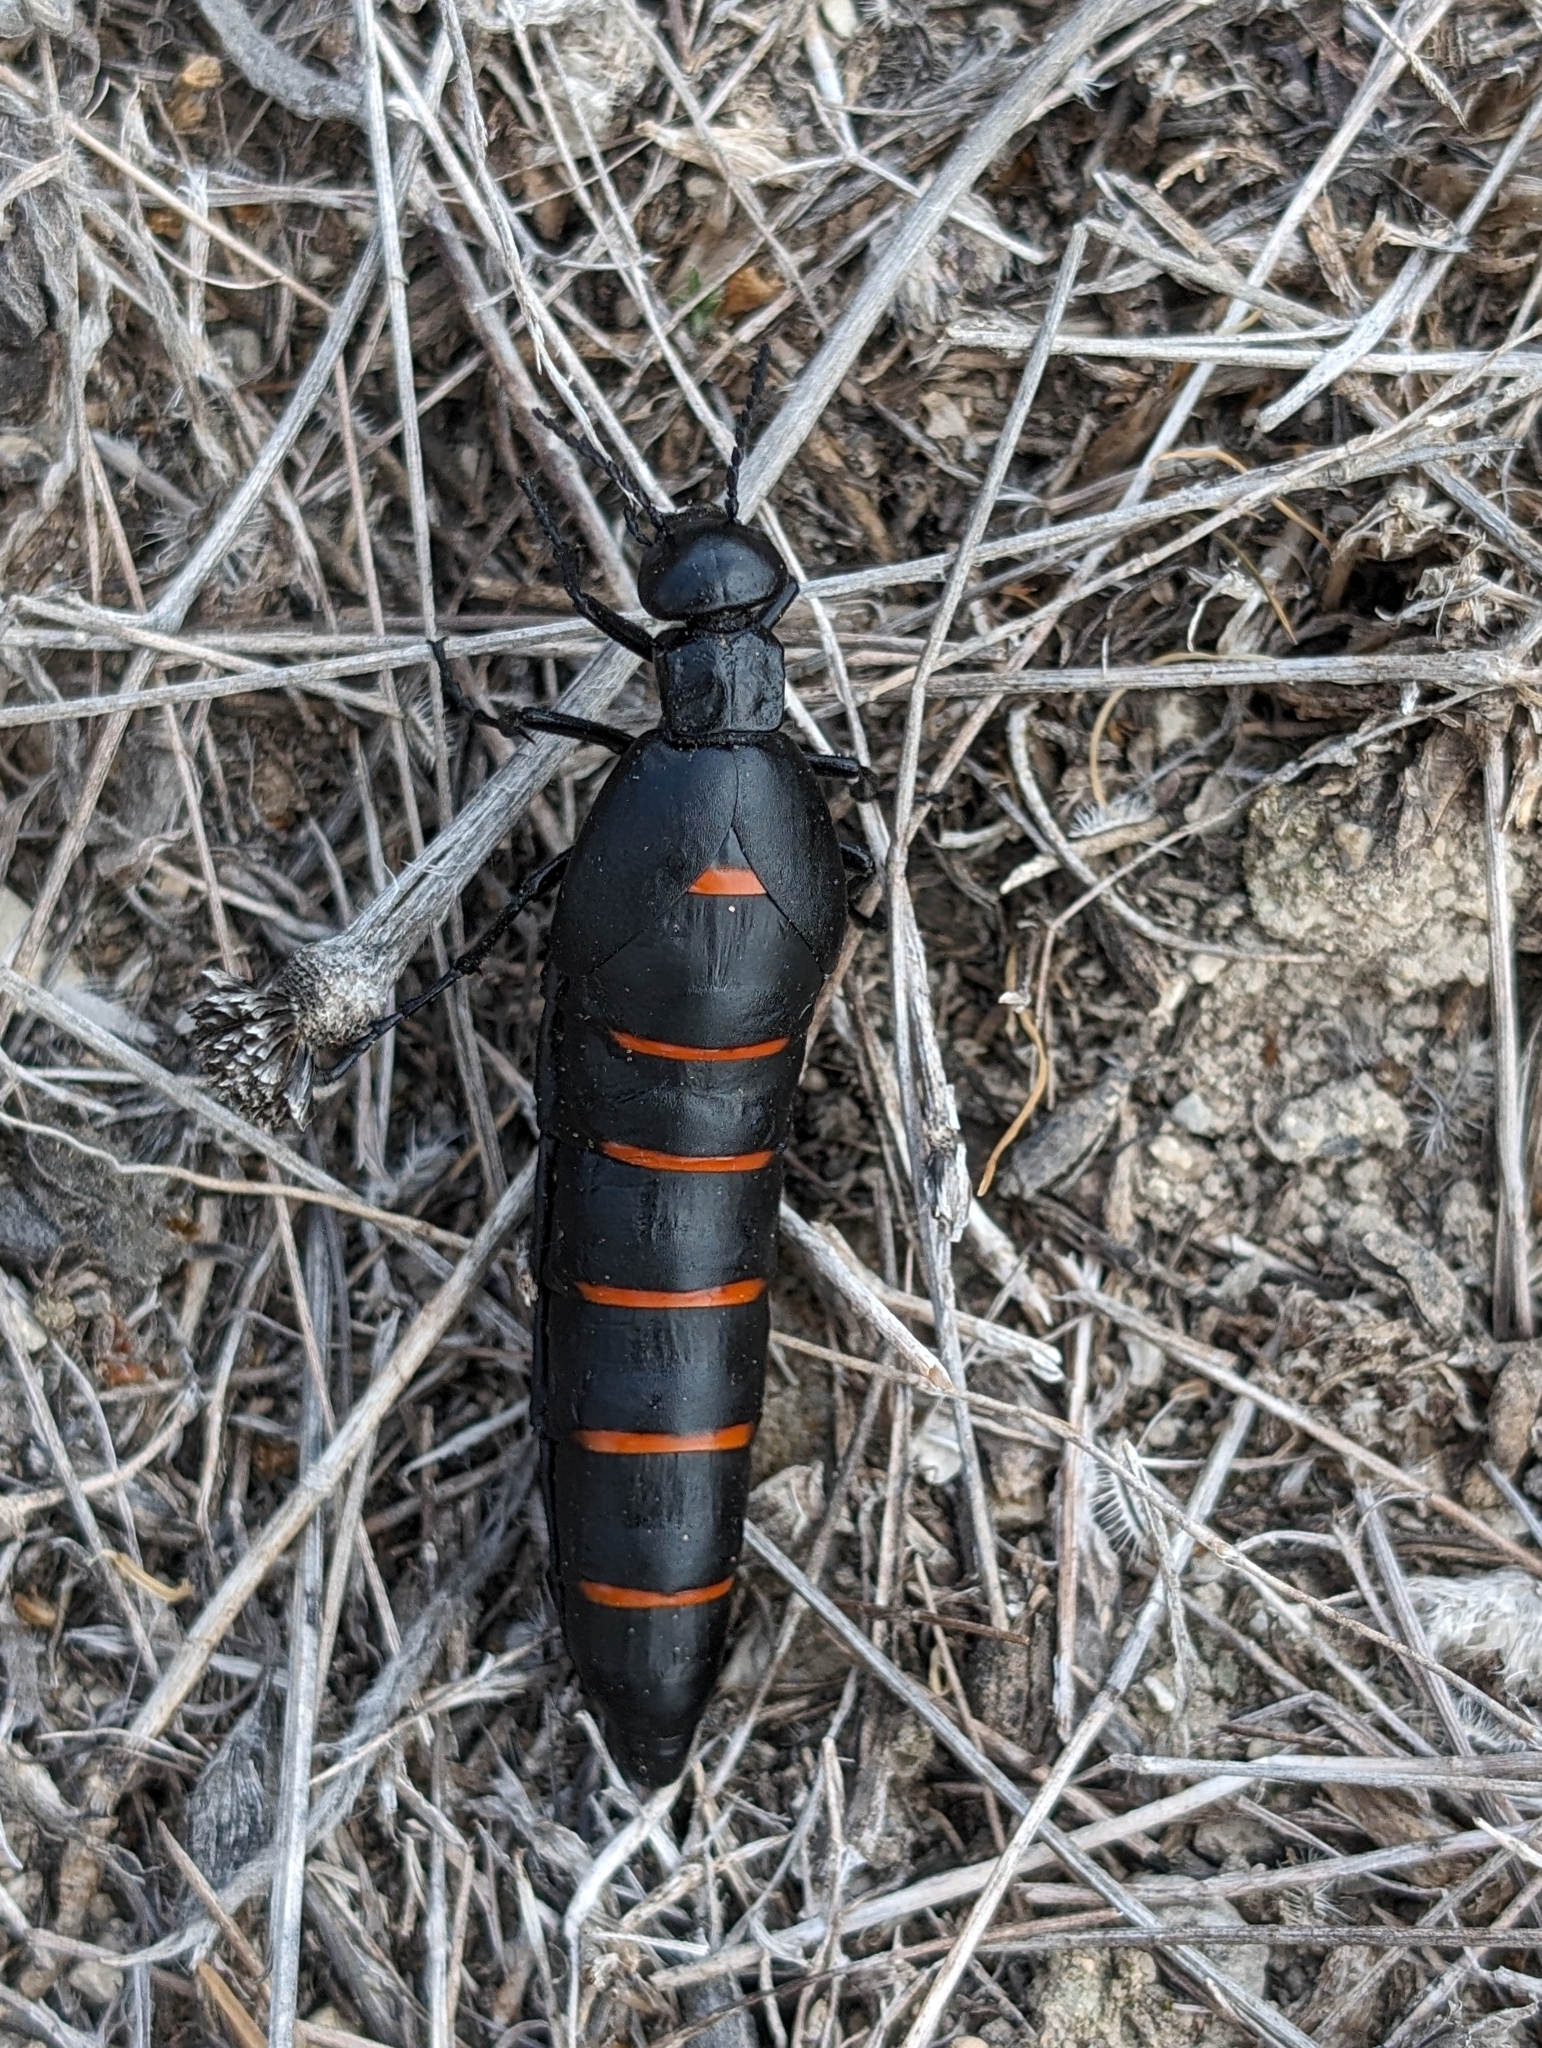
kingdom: Animalia
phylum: Arthropoda
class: Insecta
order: Coleoptera
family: Meloidae
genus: Berberomeloe
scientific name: Berberomeloe majalis
